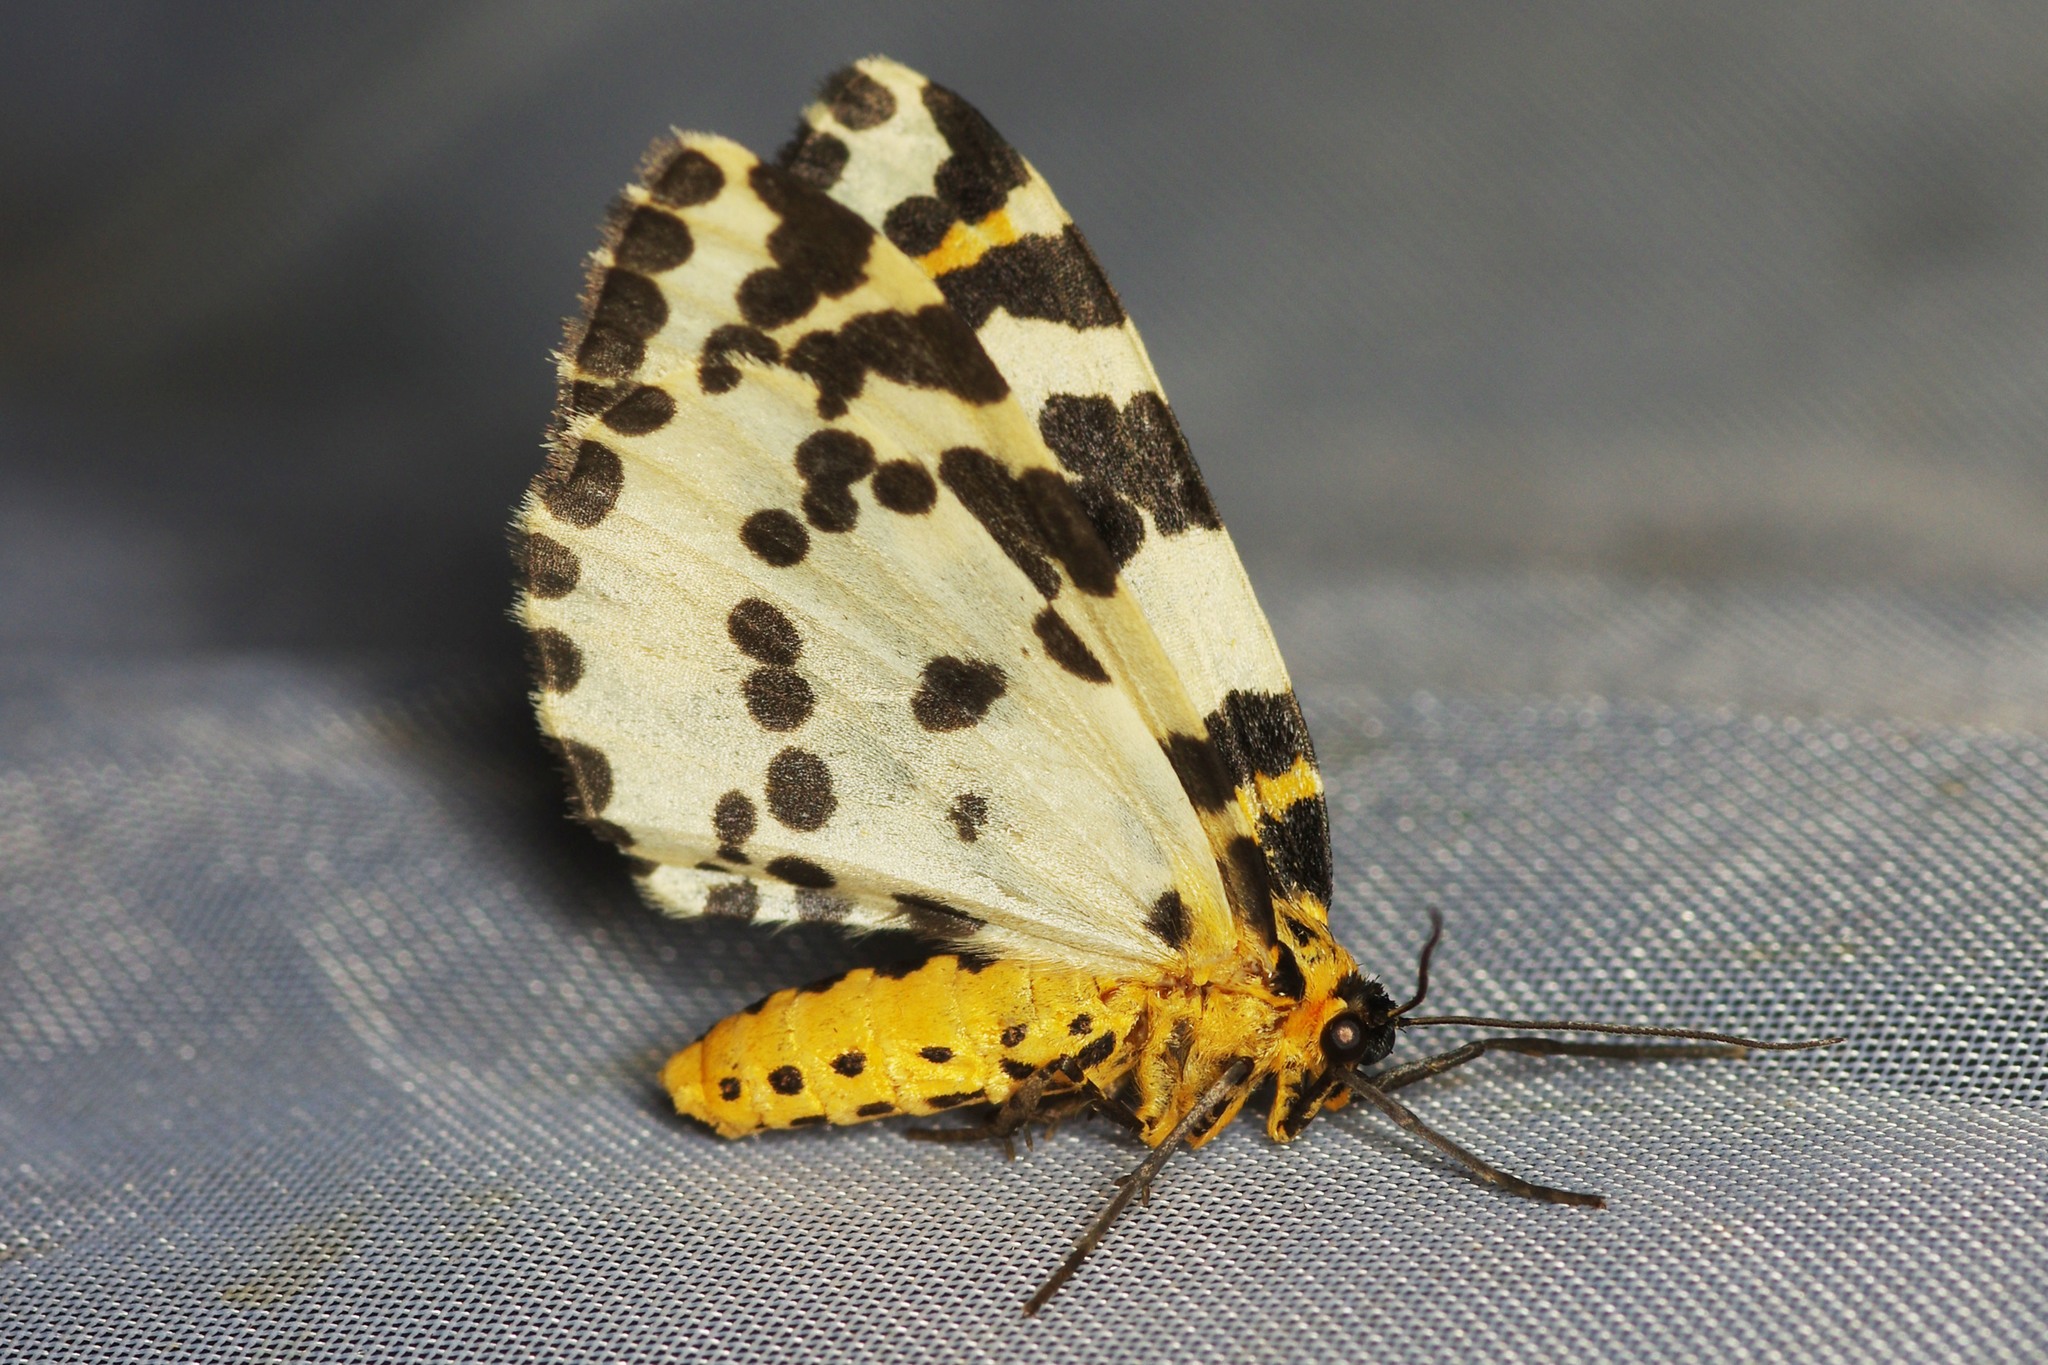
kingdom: Animalia
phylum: Arthropoda
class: Insecta
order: Lepidoptera
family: Geometridae
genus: Abraxas
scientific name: Abraxas grossulariata
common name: Magpie
